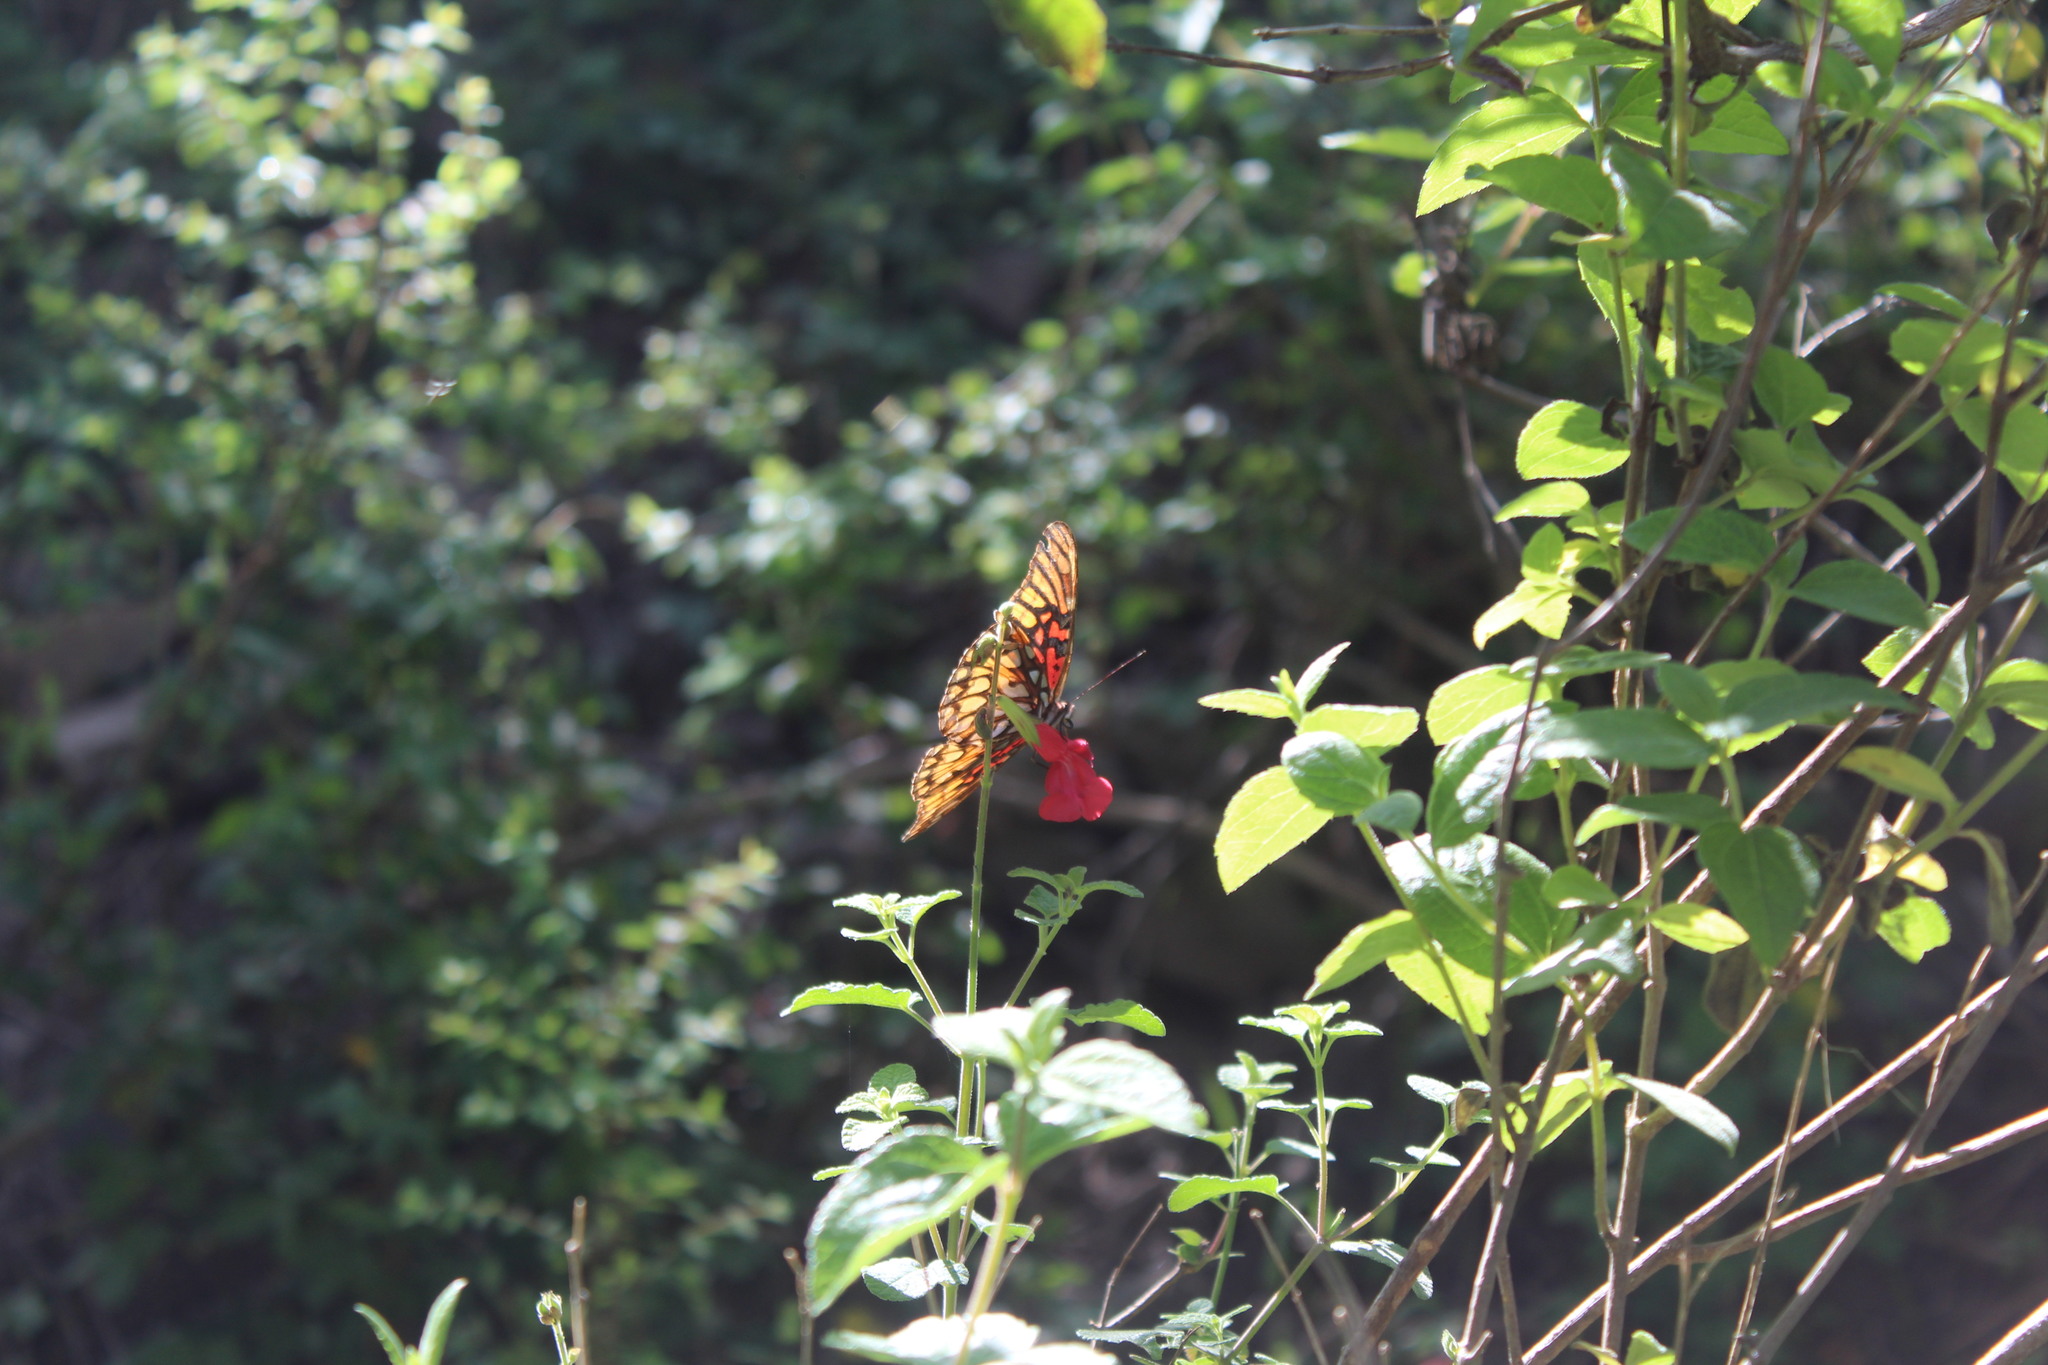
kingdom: Animalia
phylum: Arthropoda
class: Insecta
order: Lepidoptera
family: Nymphalidae
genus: Dione
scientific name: Dione moneta
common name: Mexican silverspot
